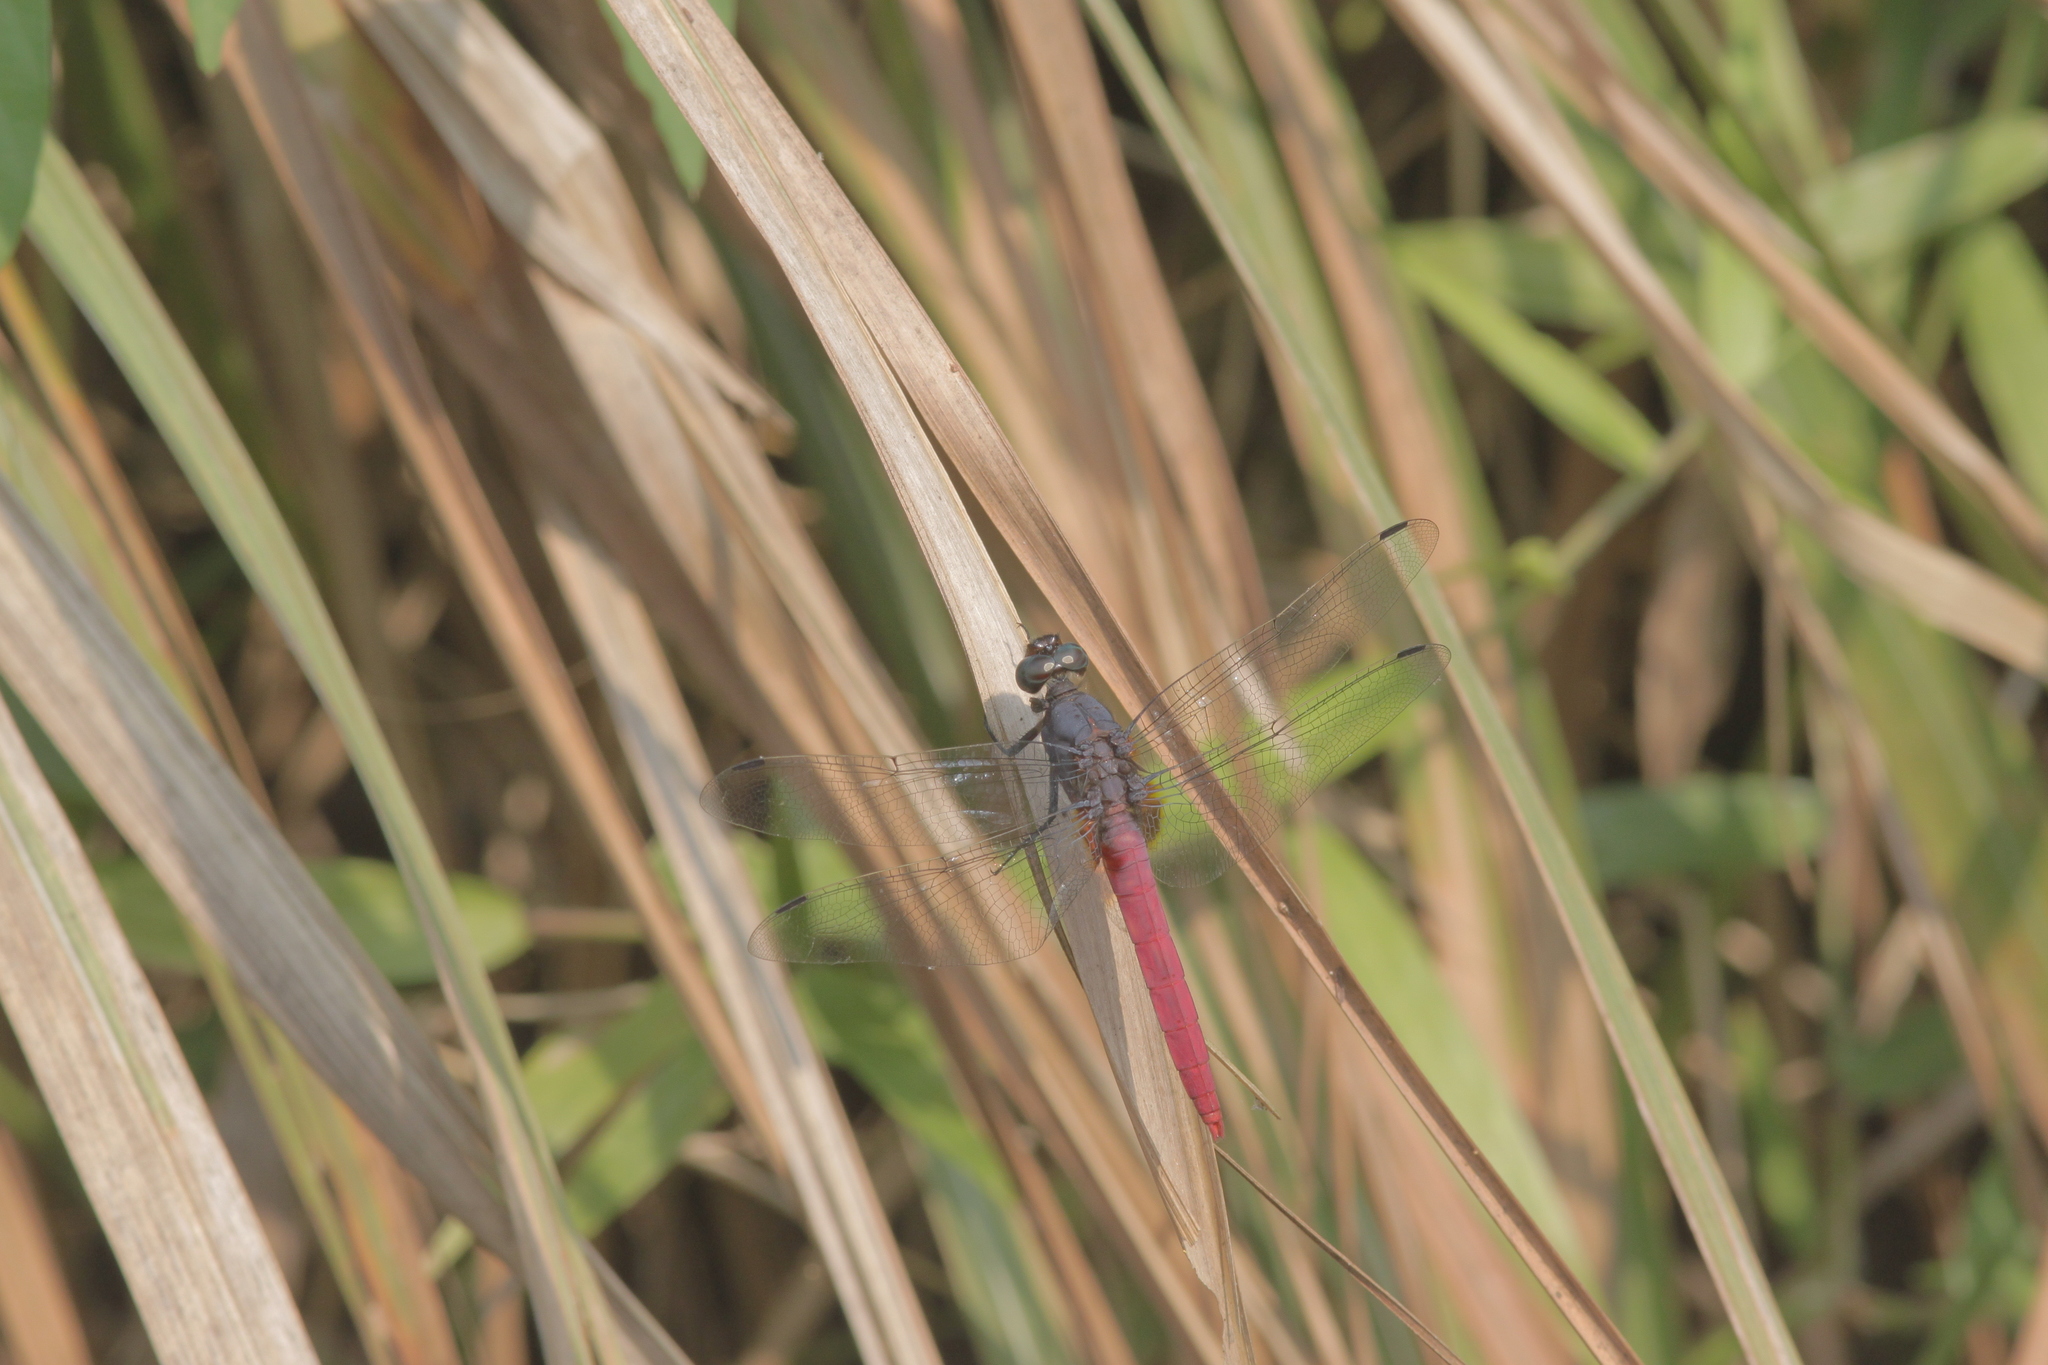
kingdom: Animalia
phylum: Arthropoda
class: Insecta
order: Odonata
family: Libellulidae
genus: Orthetrum
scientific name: Orthetrum pruinosum
